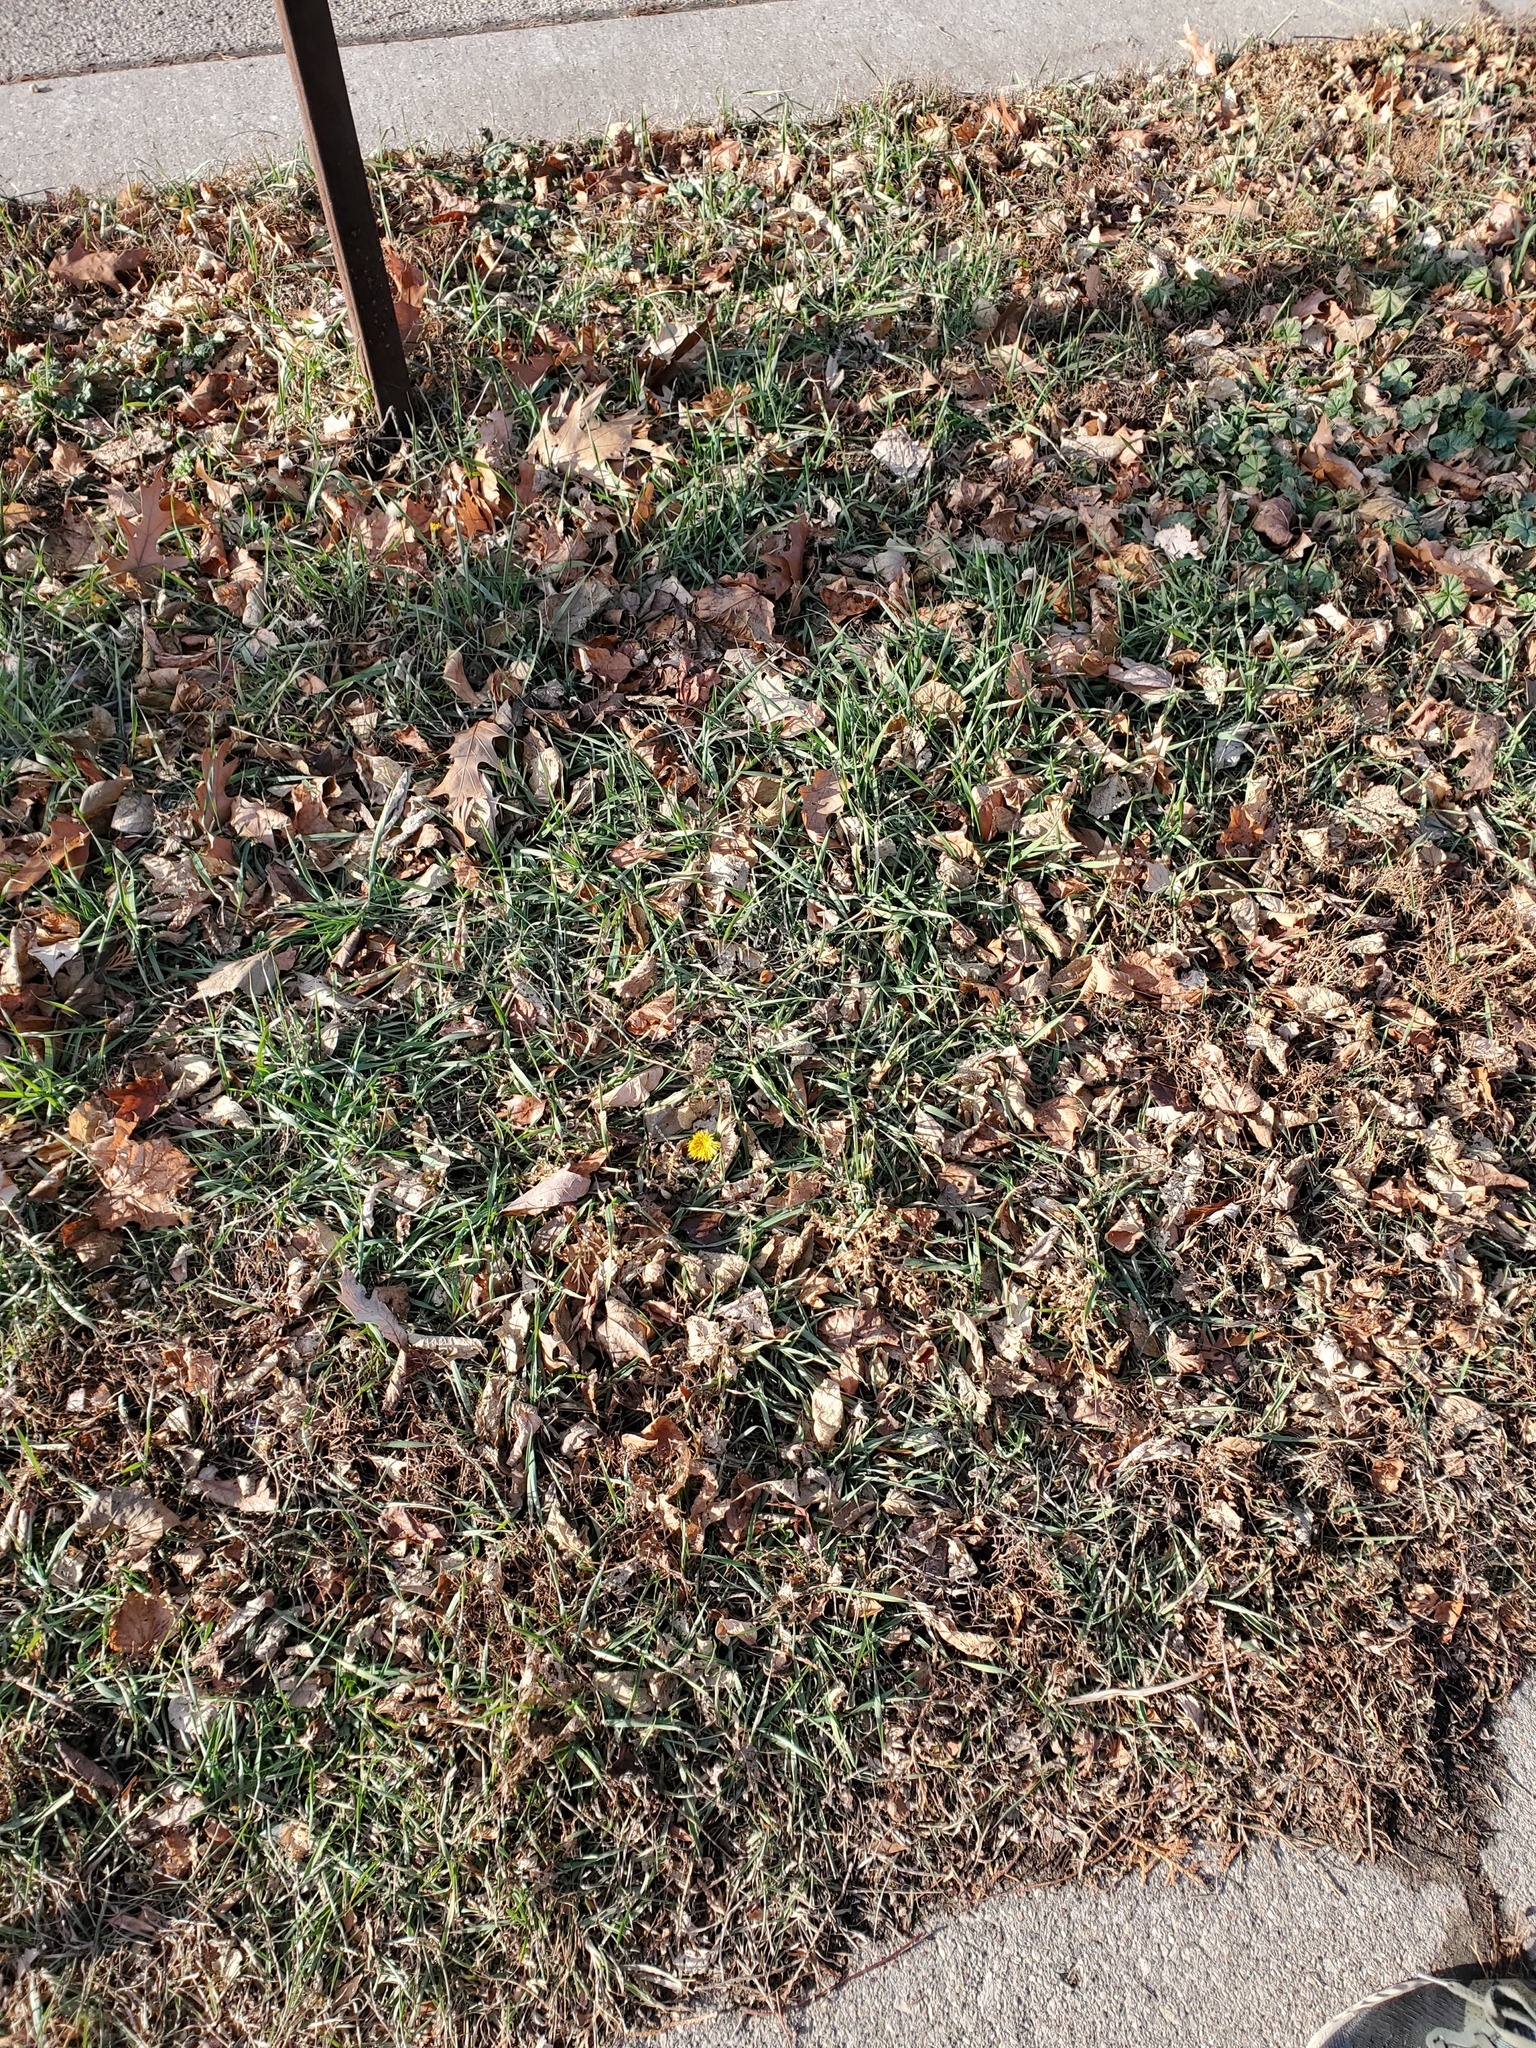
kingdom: Plantae
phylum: Tracheophyta
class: Magnoliopsida
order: Asterales
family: Asteraceae
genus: Taraxacum
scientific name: Taraxacum officinale
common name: Common dandelion
